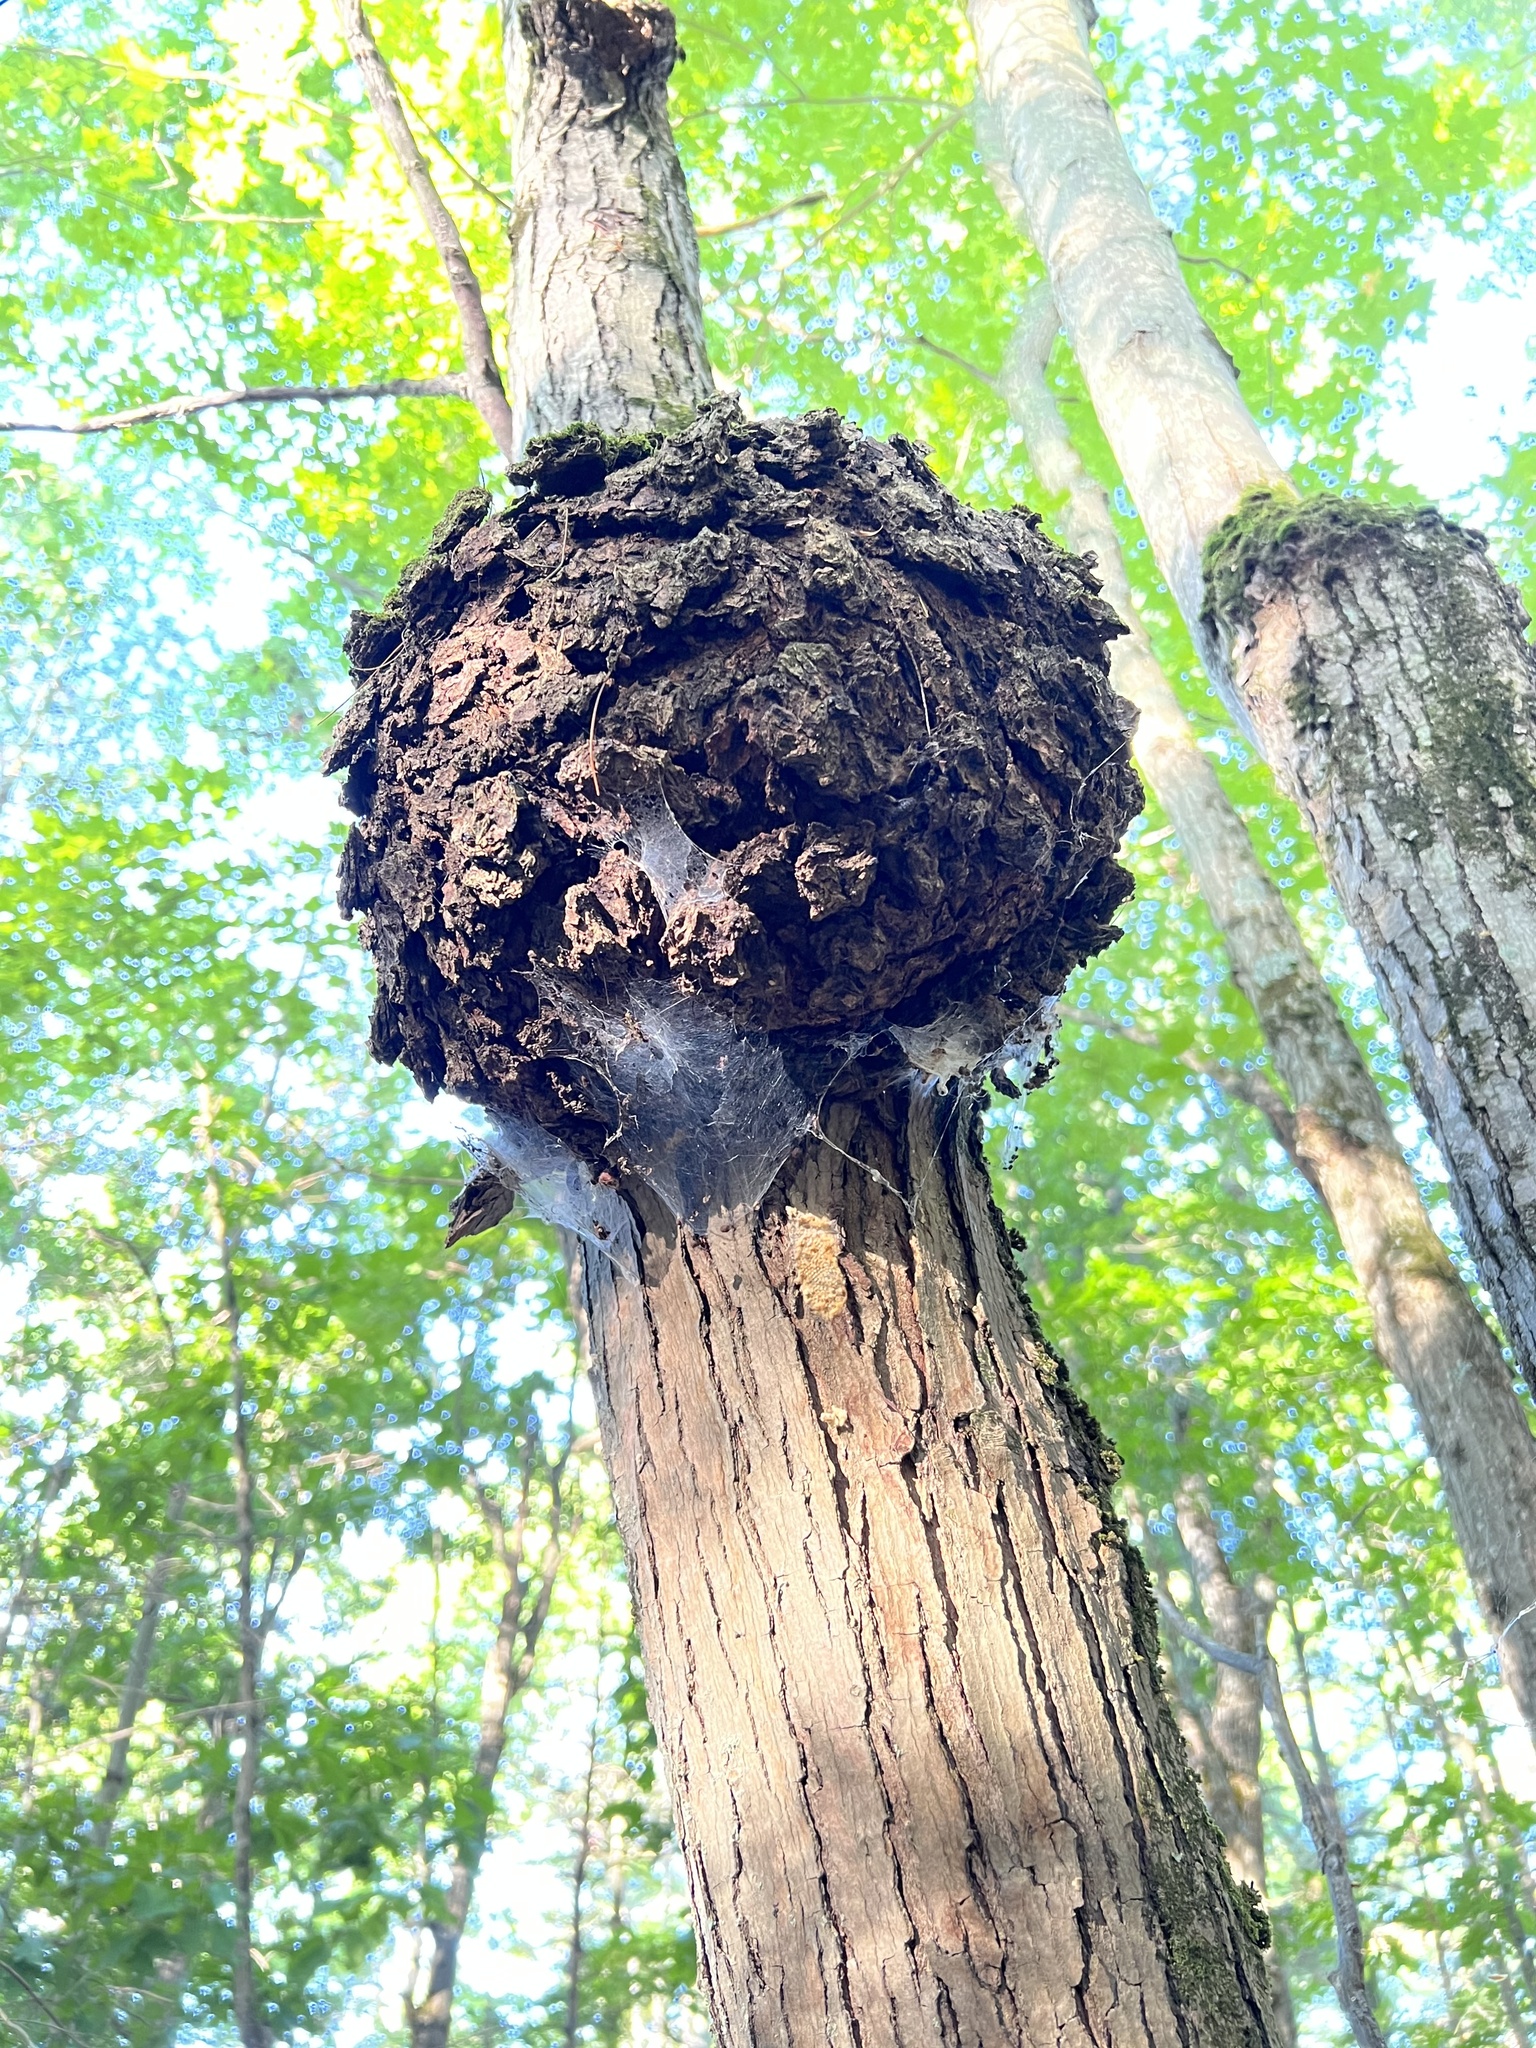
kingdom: Bacteria
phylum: Proteobacteria
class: Alphaproteobacteria
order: Rhizobiales
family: Rhizobiaceae
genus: Rhizobium
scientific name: Rhizobium Agrobacterium radiobacter
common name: Bacterial crown gall
